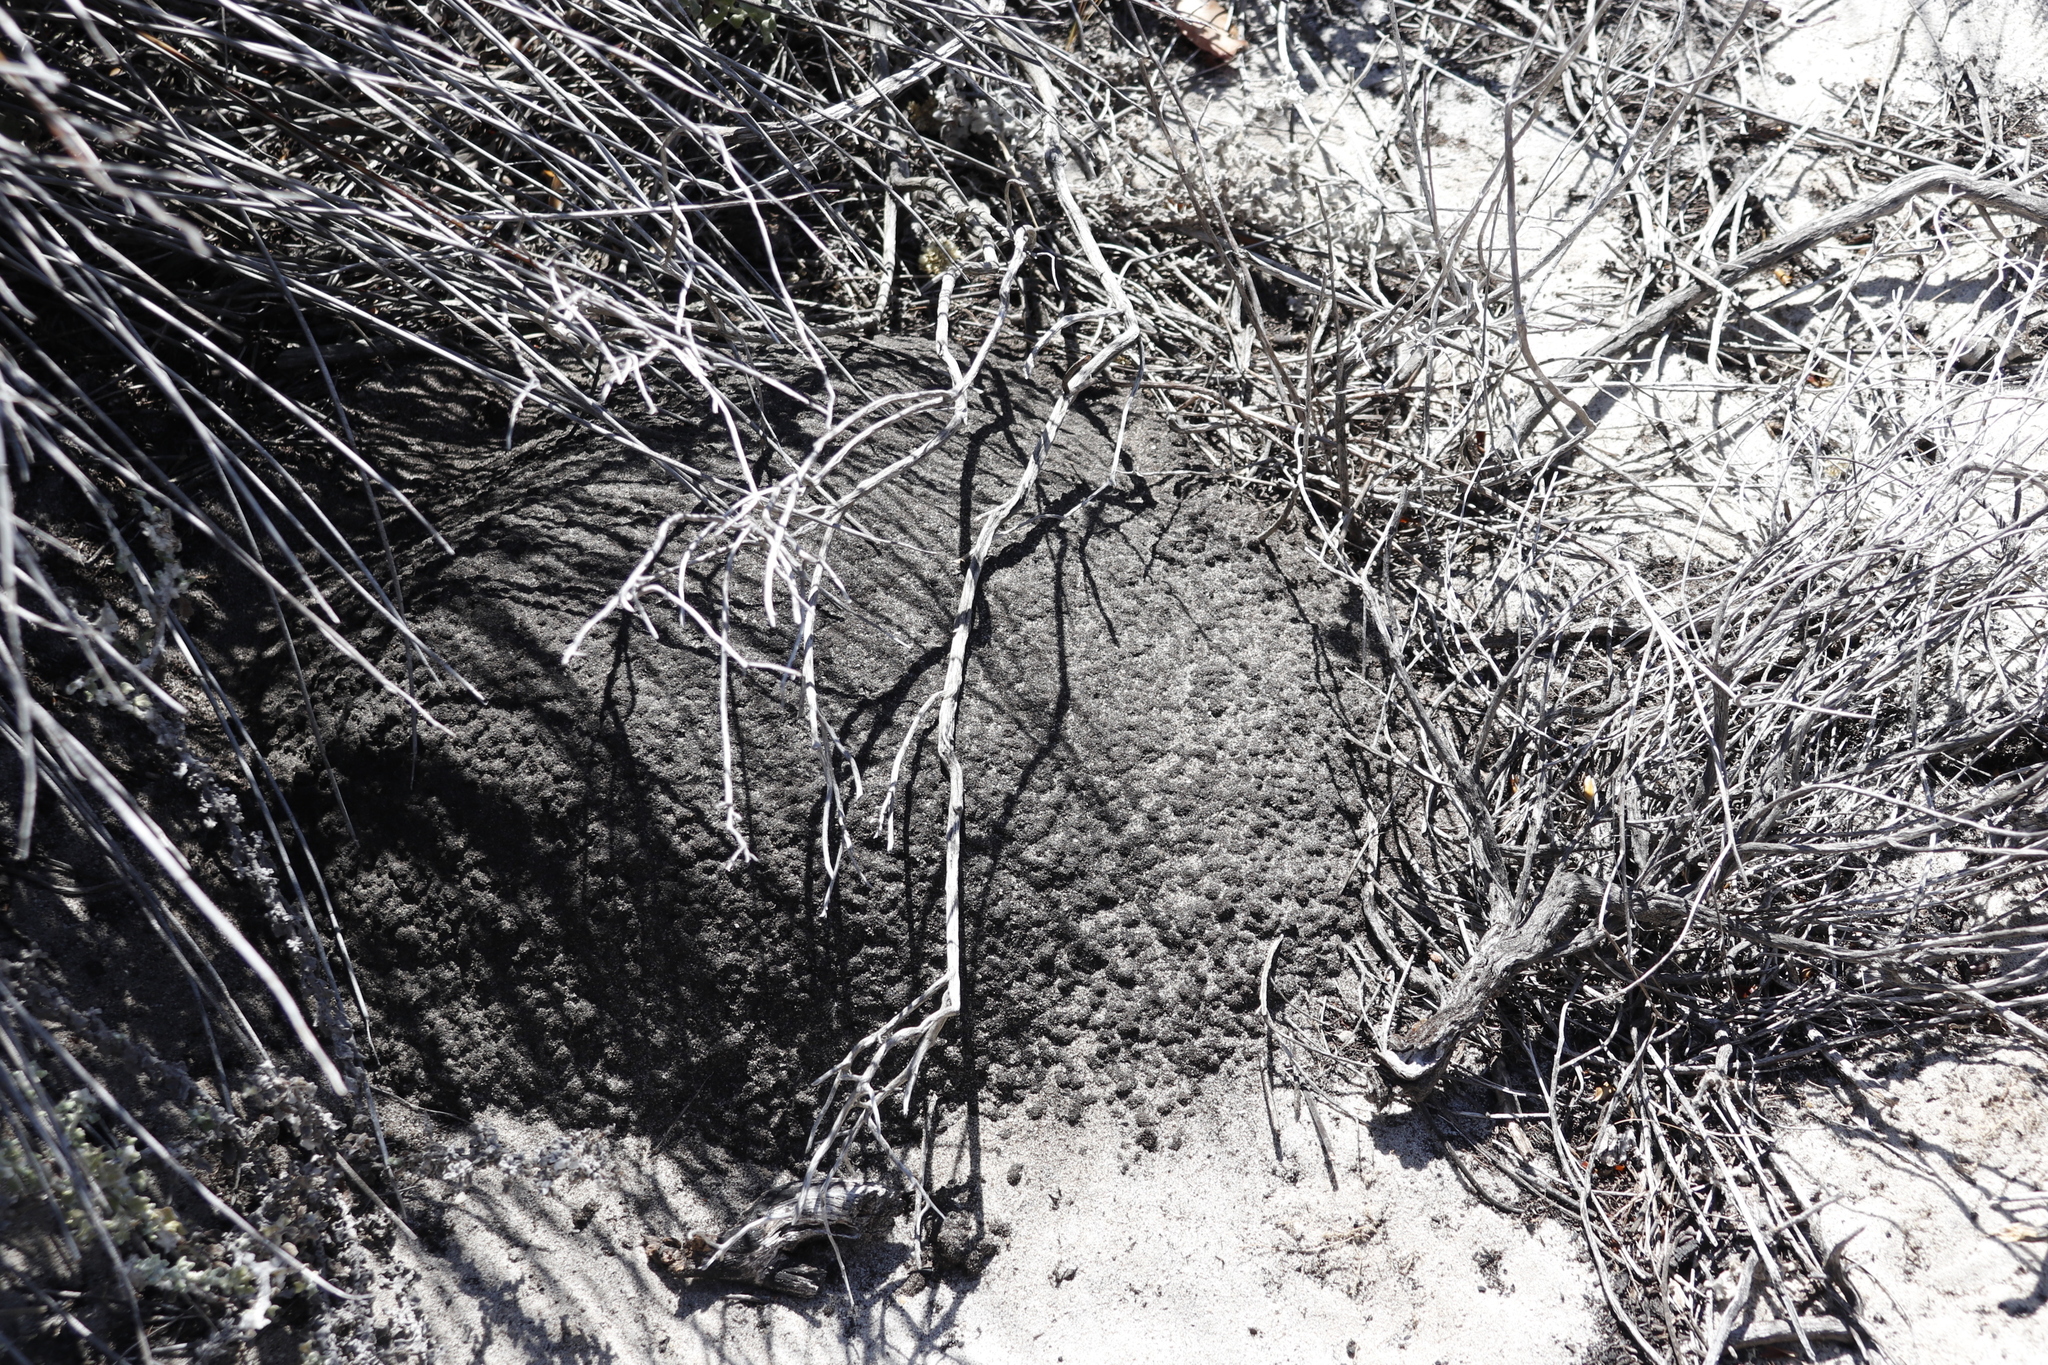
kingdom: Animalia
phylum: Arthropoda
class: Insecta
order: Blattodea
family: Termitidae
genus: Amitermes
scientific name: Amitermes hastatus
